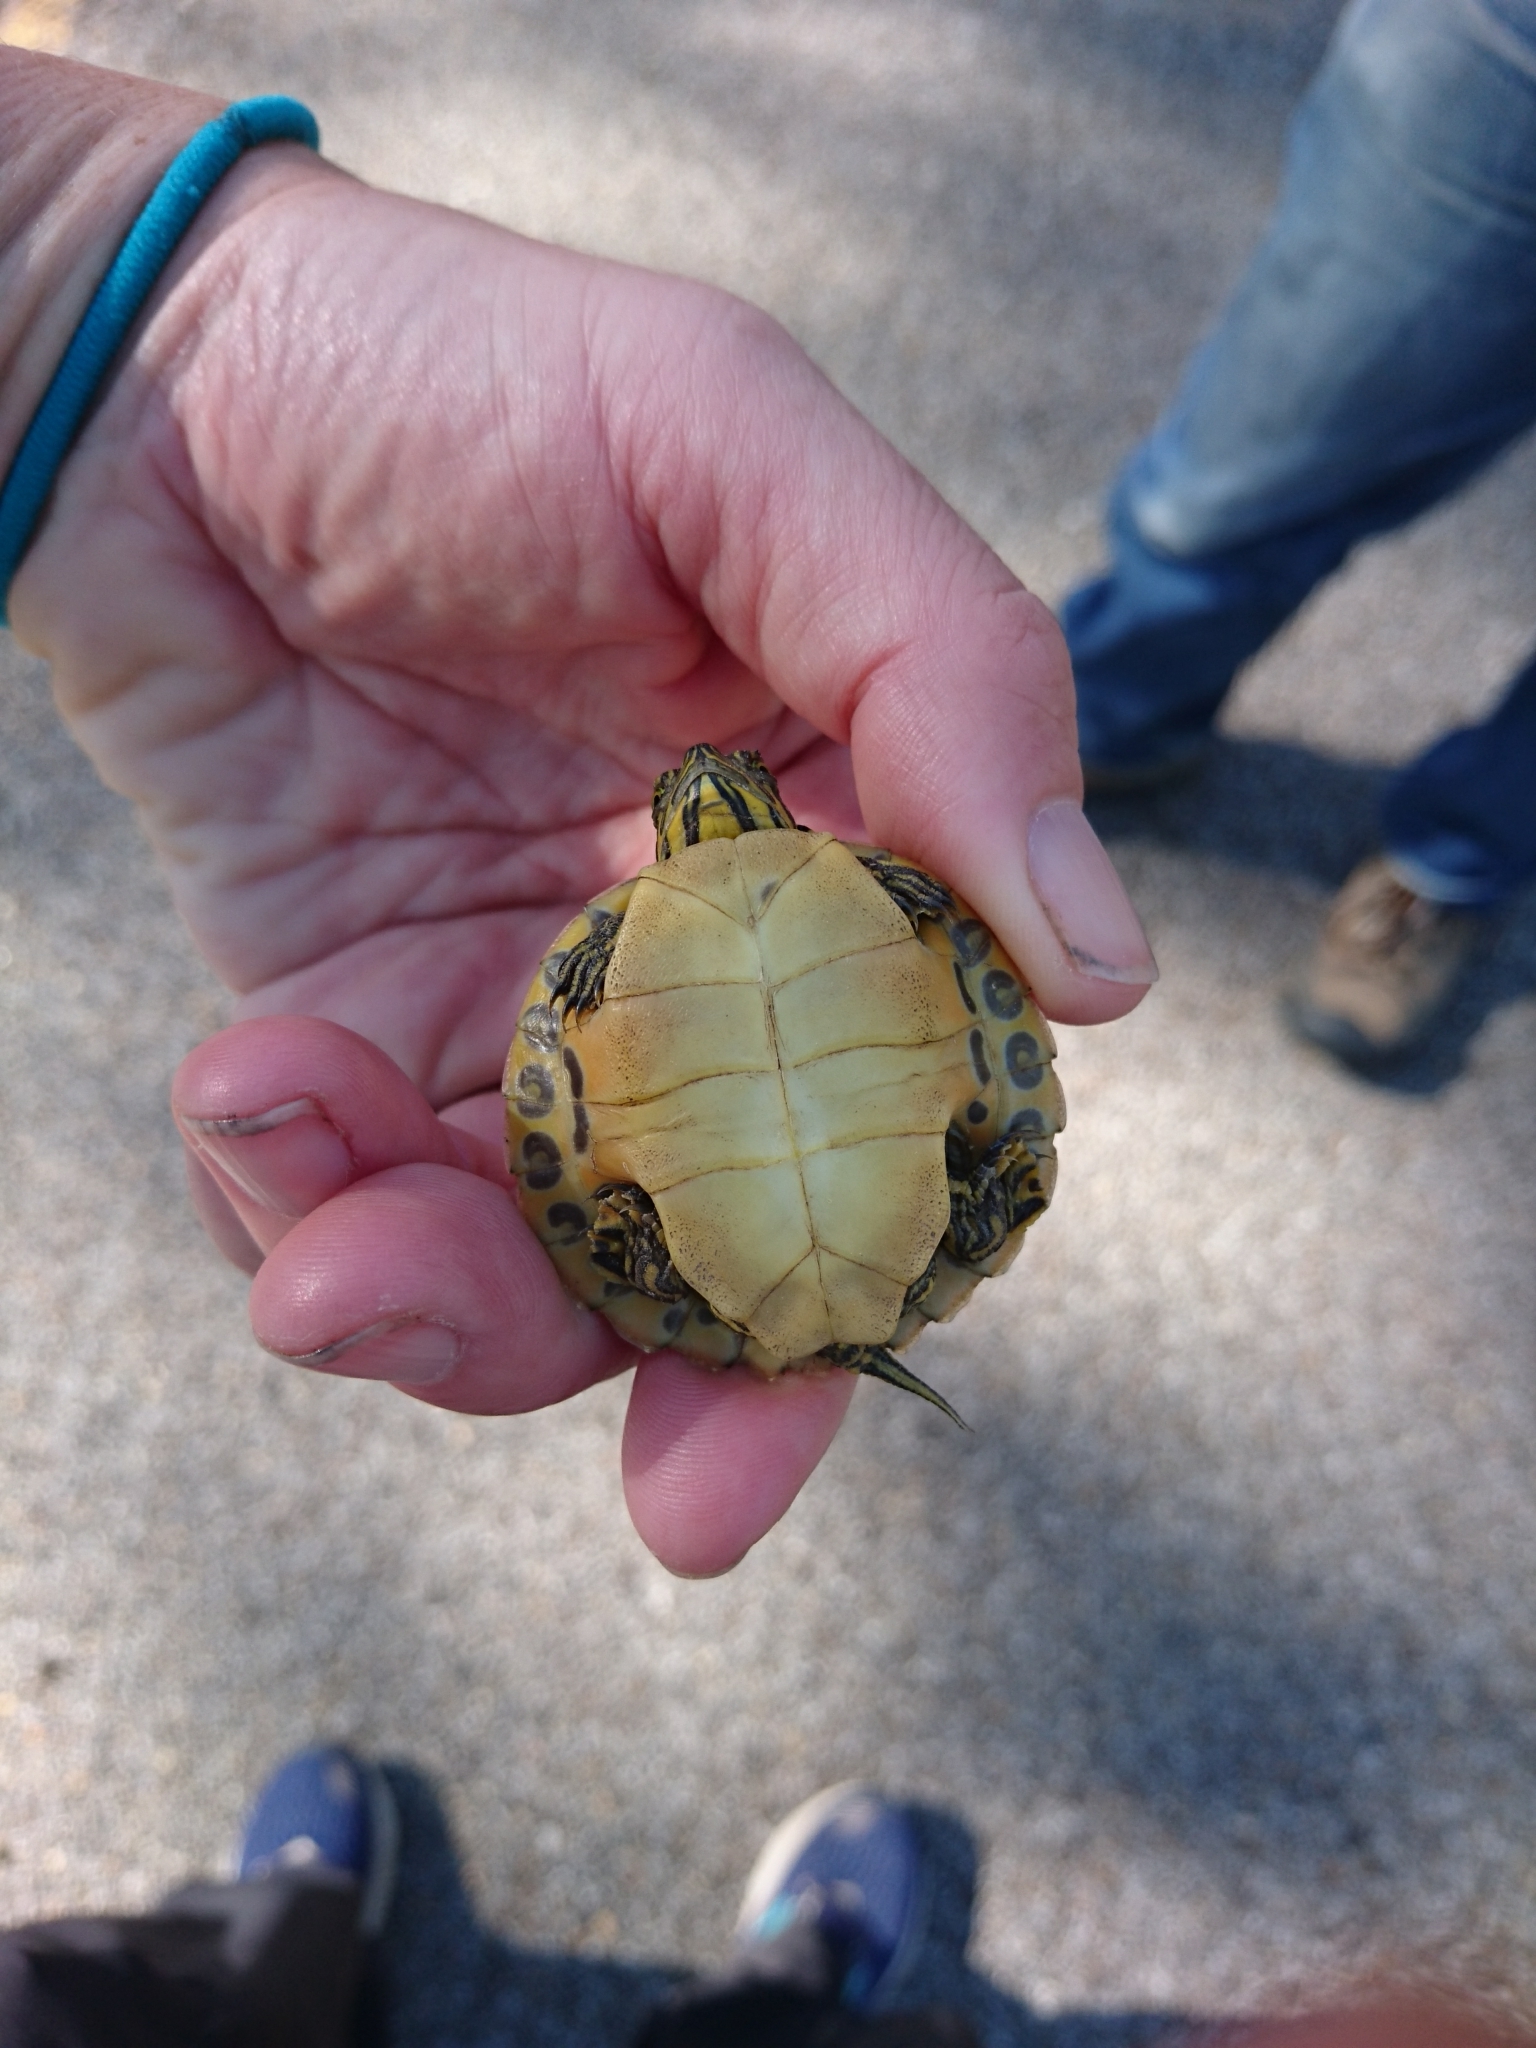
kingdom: Animalia
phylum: Chordata
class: Testudines
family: Emydidae
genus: Pseudemys
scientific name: Pseudemys concinna
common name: Eastern river cooter
